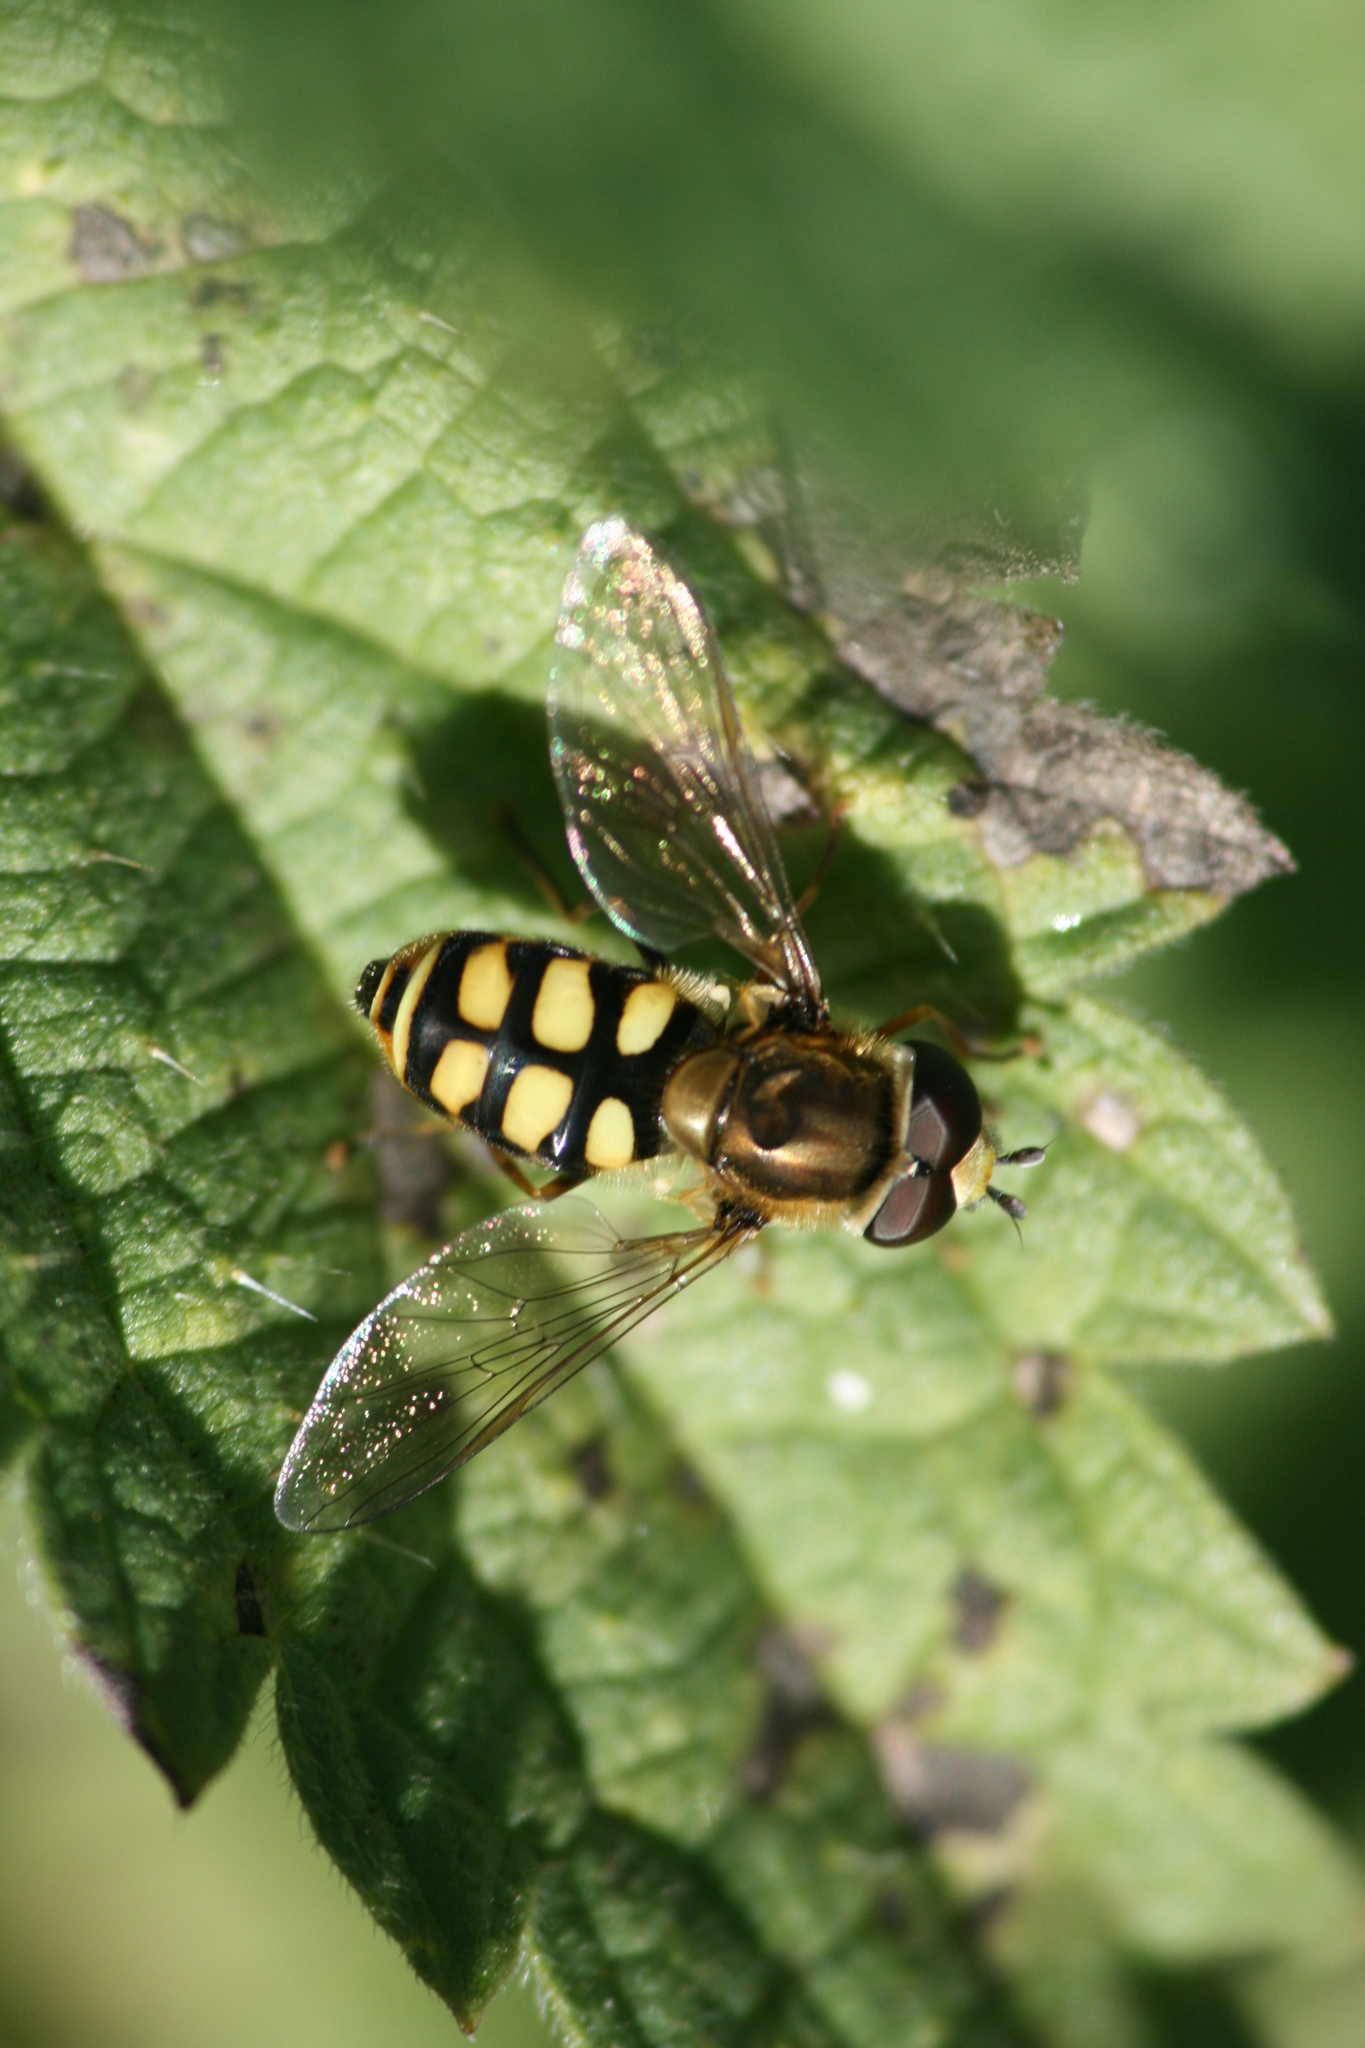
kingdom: Animalia
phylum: Arthropoda
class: Insecta
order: Diptera
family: Syrphidae
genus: Eupeodes
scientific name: Eupeodes corollae
